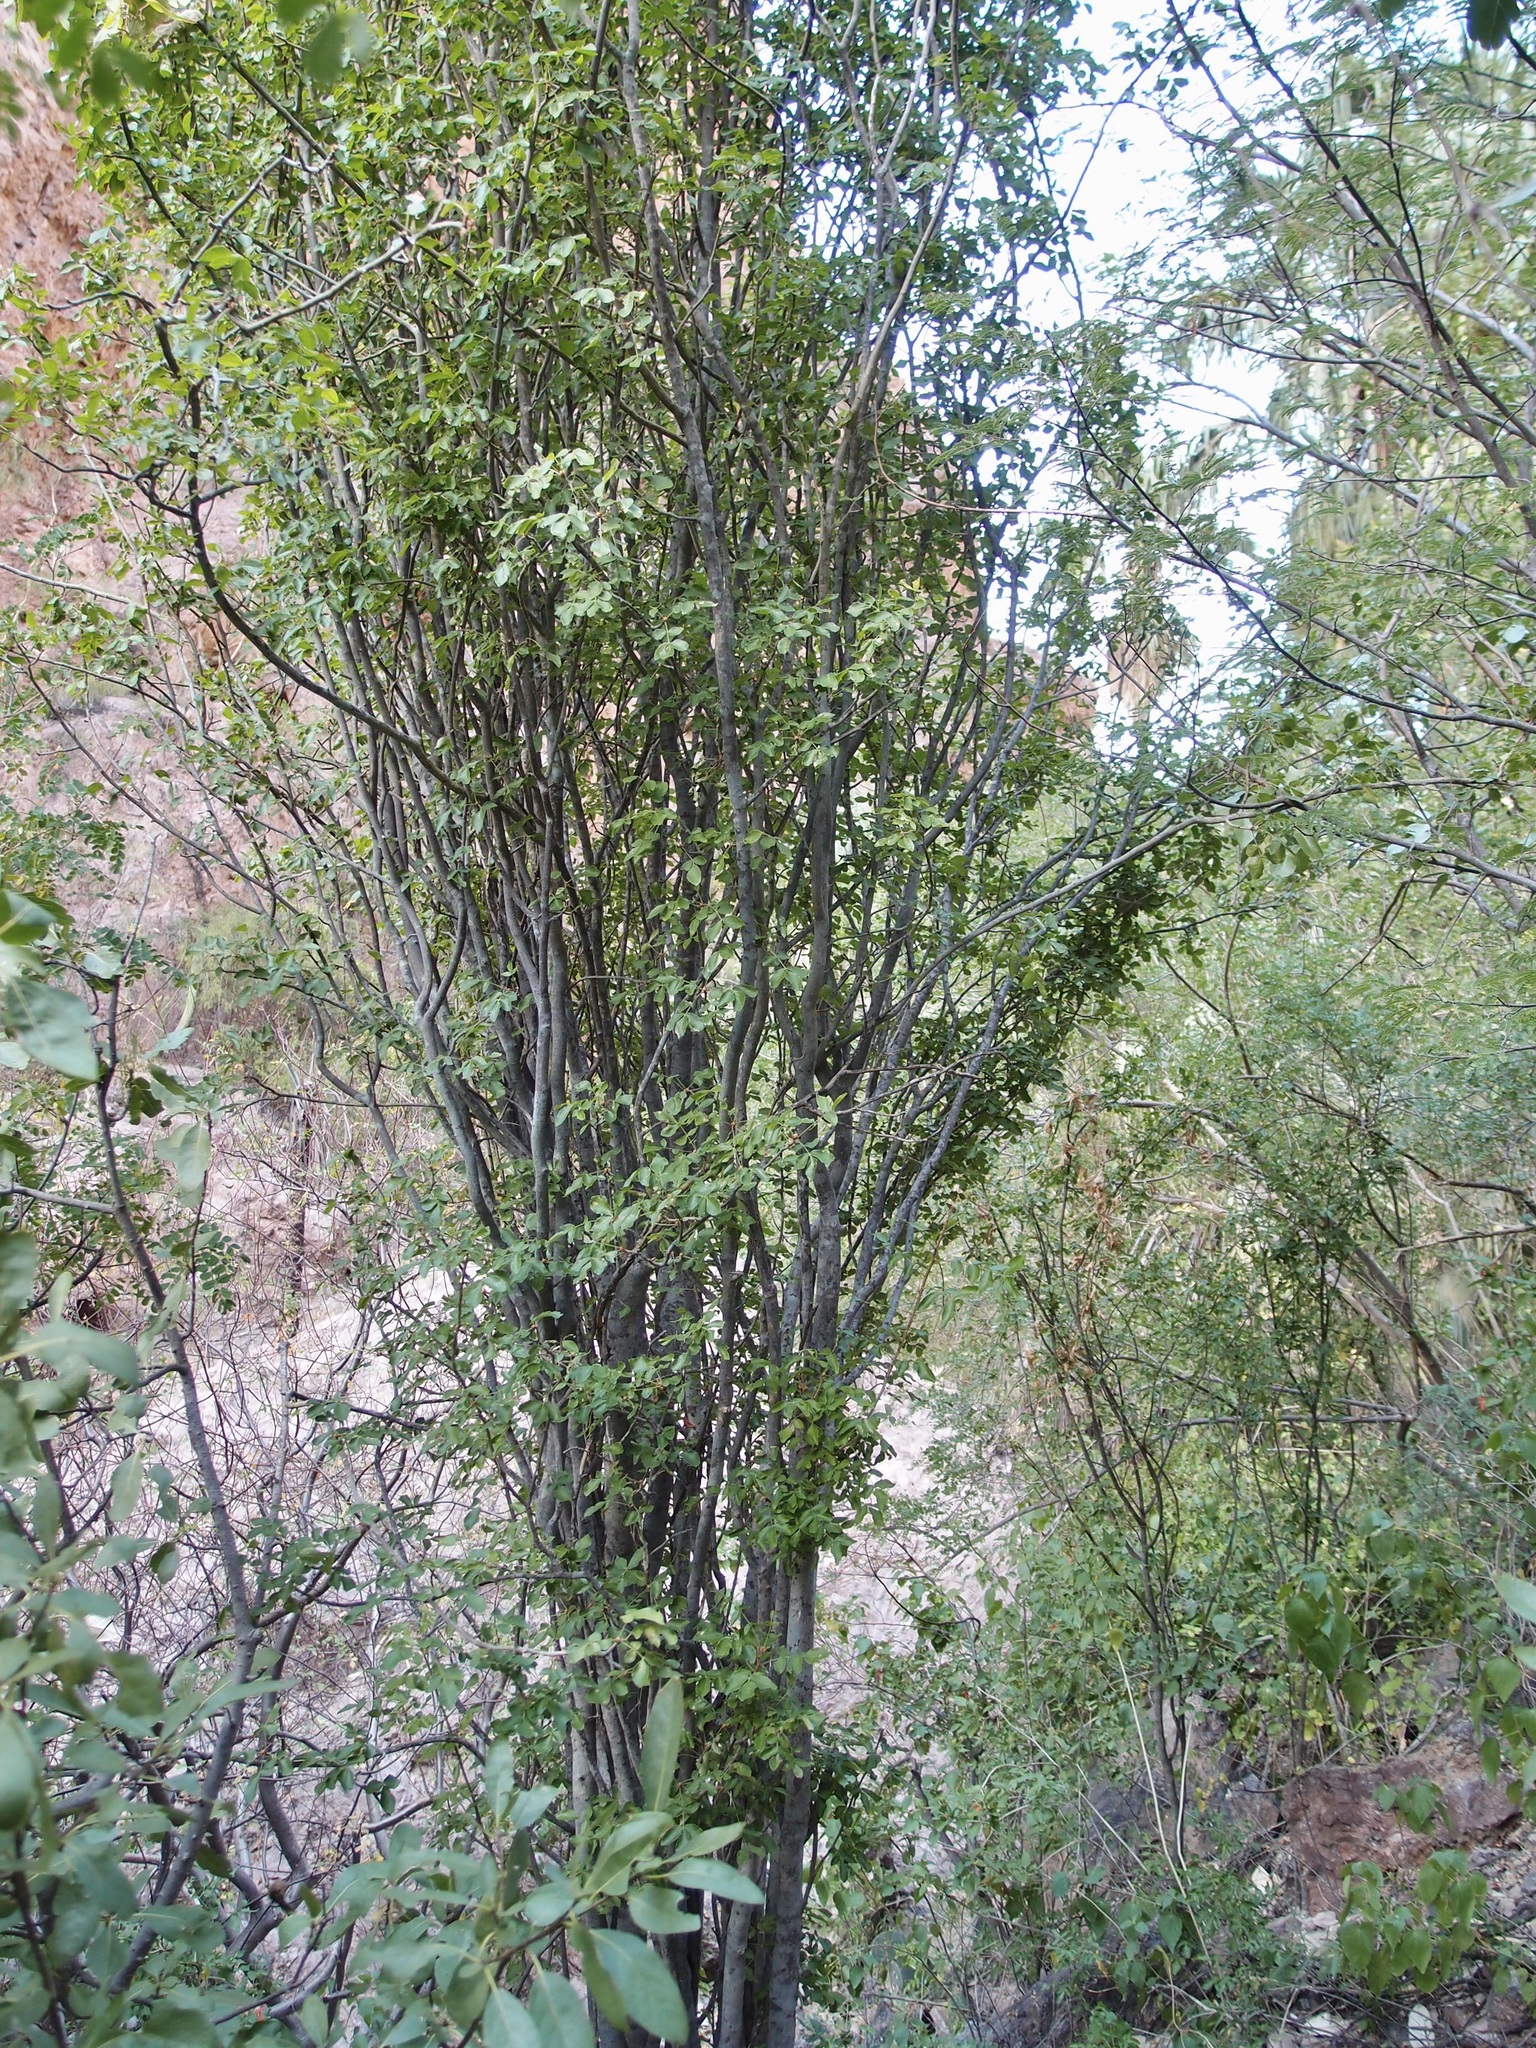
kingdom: Plantae
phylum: Tracheophyta
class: Magnoliopsida
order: Sapindales
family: Rutaceae
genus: Zanthoxylum
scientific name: Zanthoxylum ciliatum
